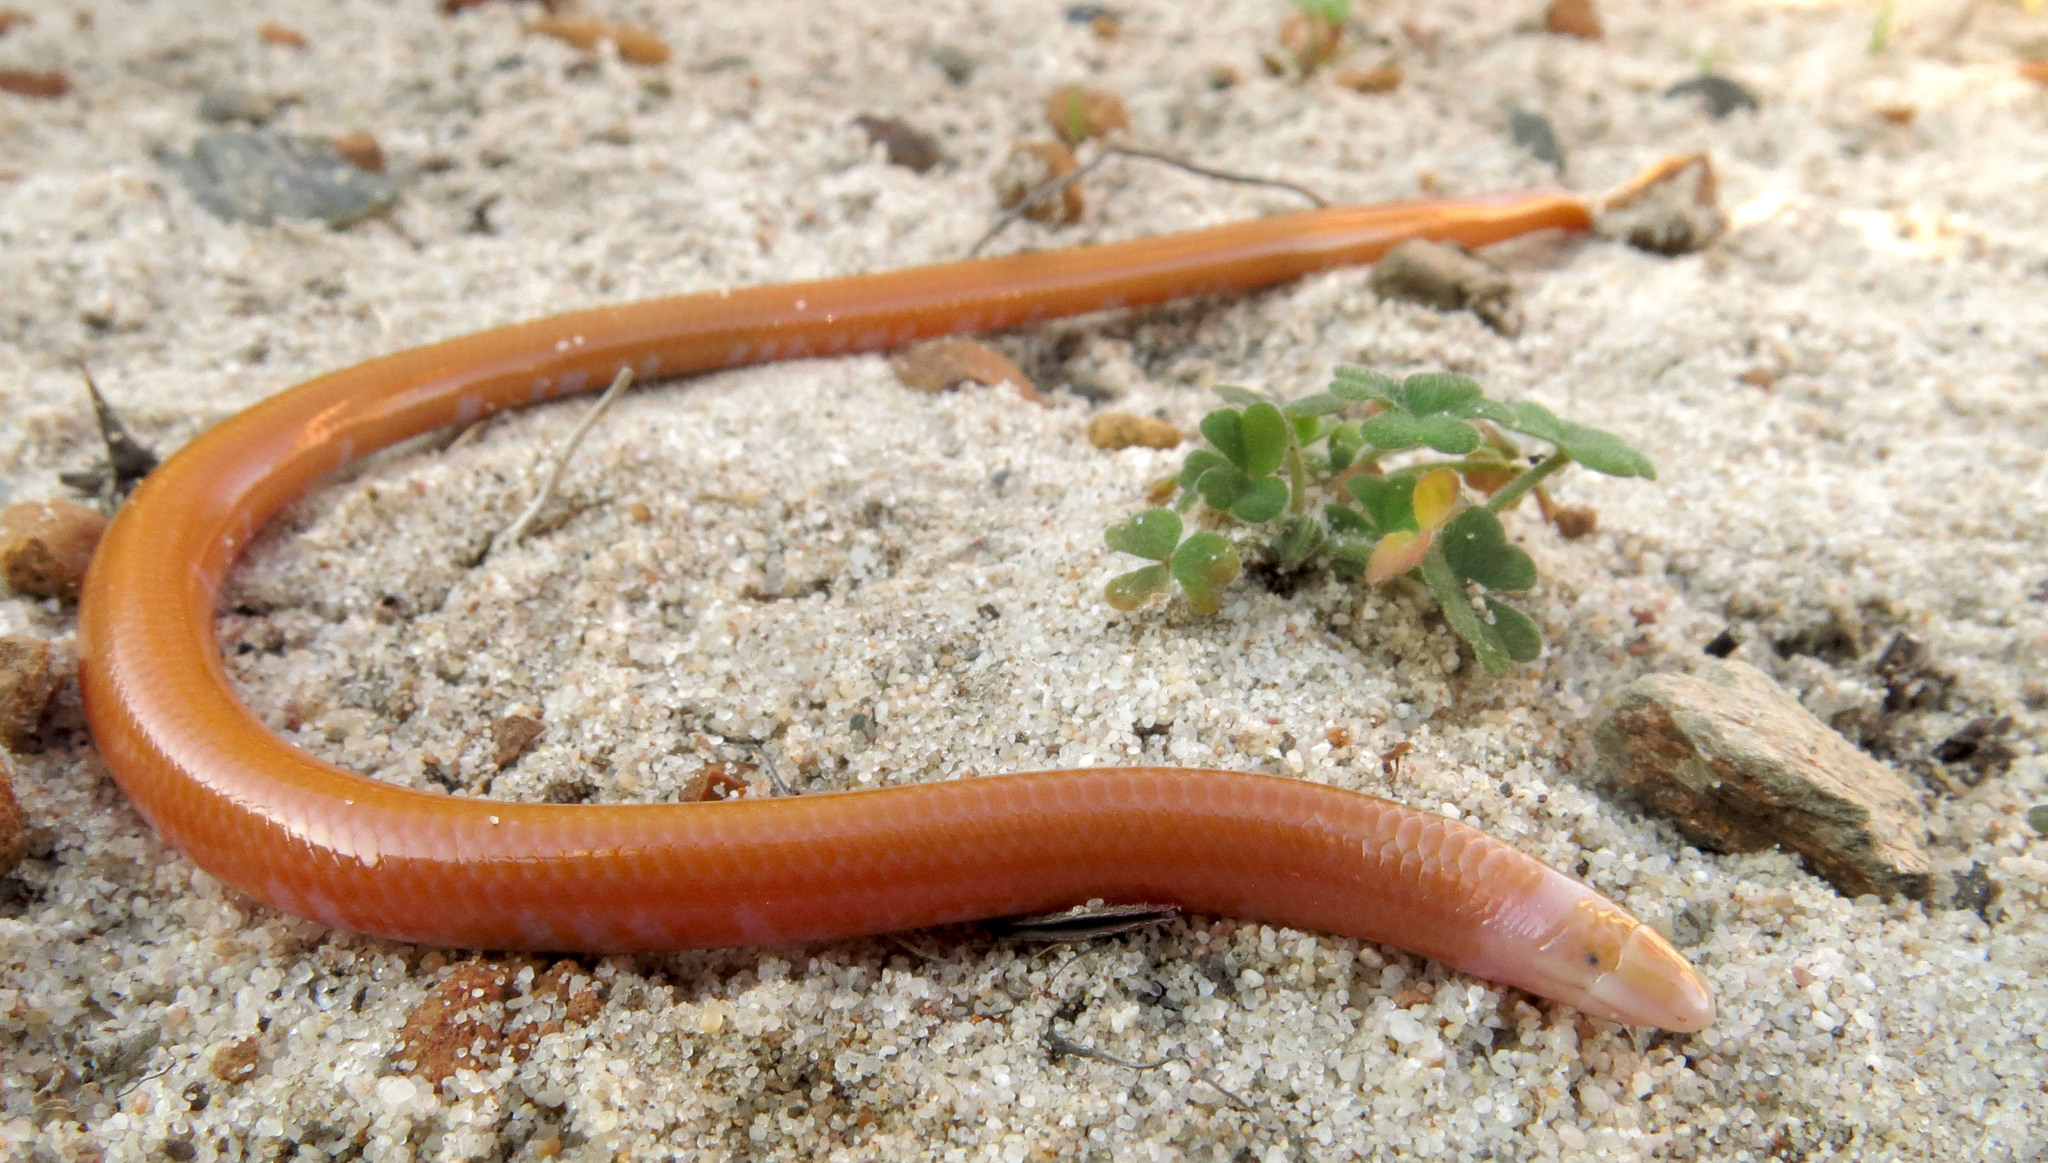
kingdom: Animalia
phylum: Chordata
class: Squamata
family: Scincidae
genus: Typhlosaurus
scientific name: Typhlosaurus caecus
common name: Cuvier's legless skink
